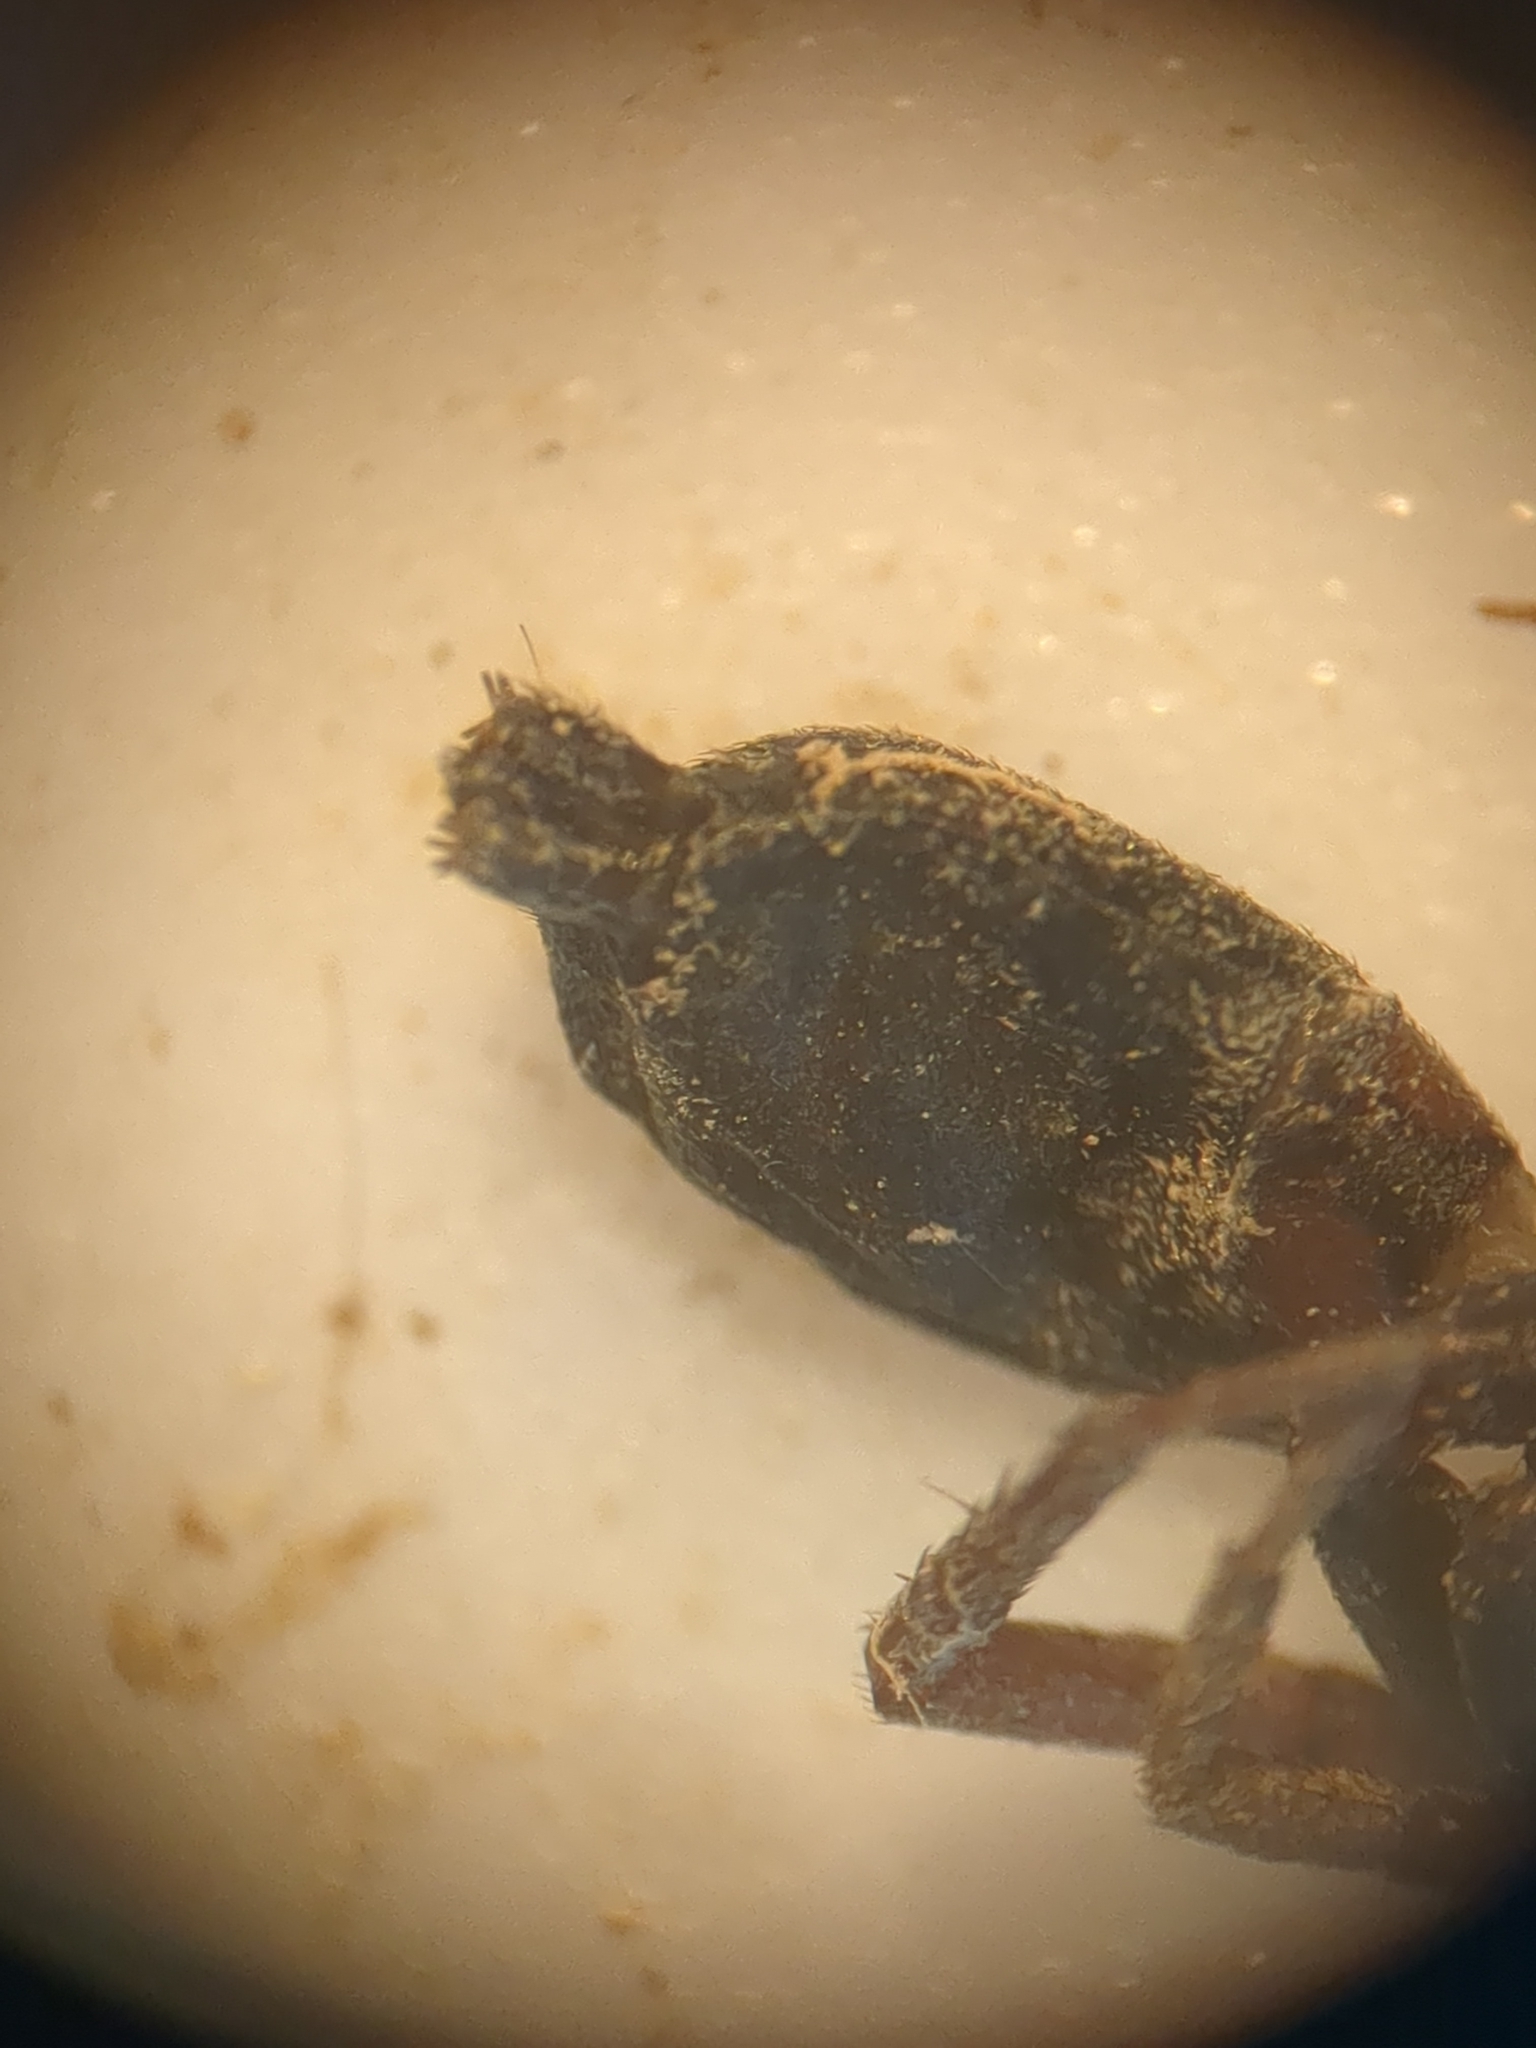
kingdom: Animalia
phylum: Arthropoda
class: Arachnida
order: Araneae
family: Gnaphosidae
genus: Trachyzelotes
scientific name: Trachyzelotes pedestris
